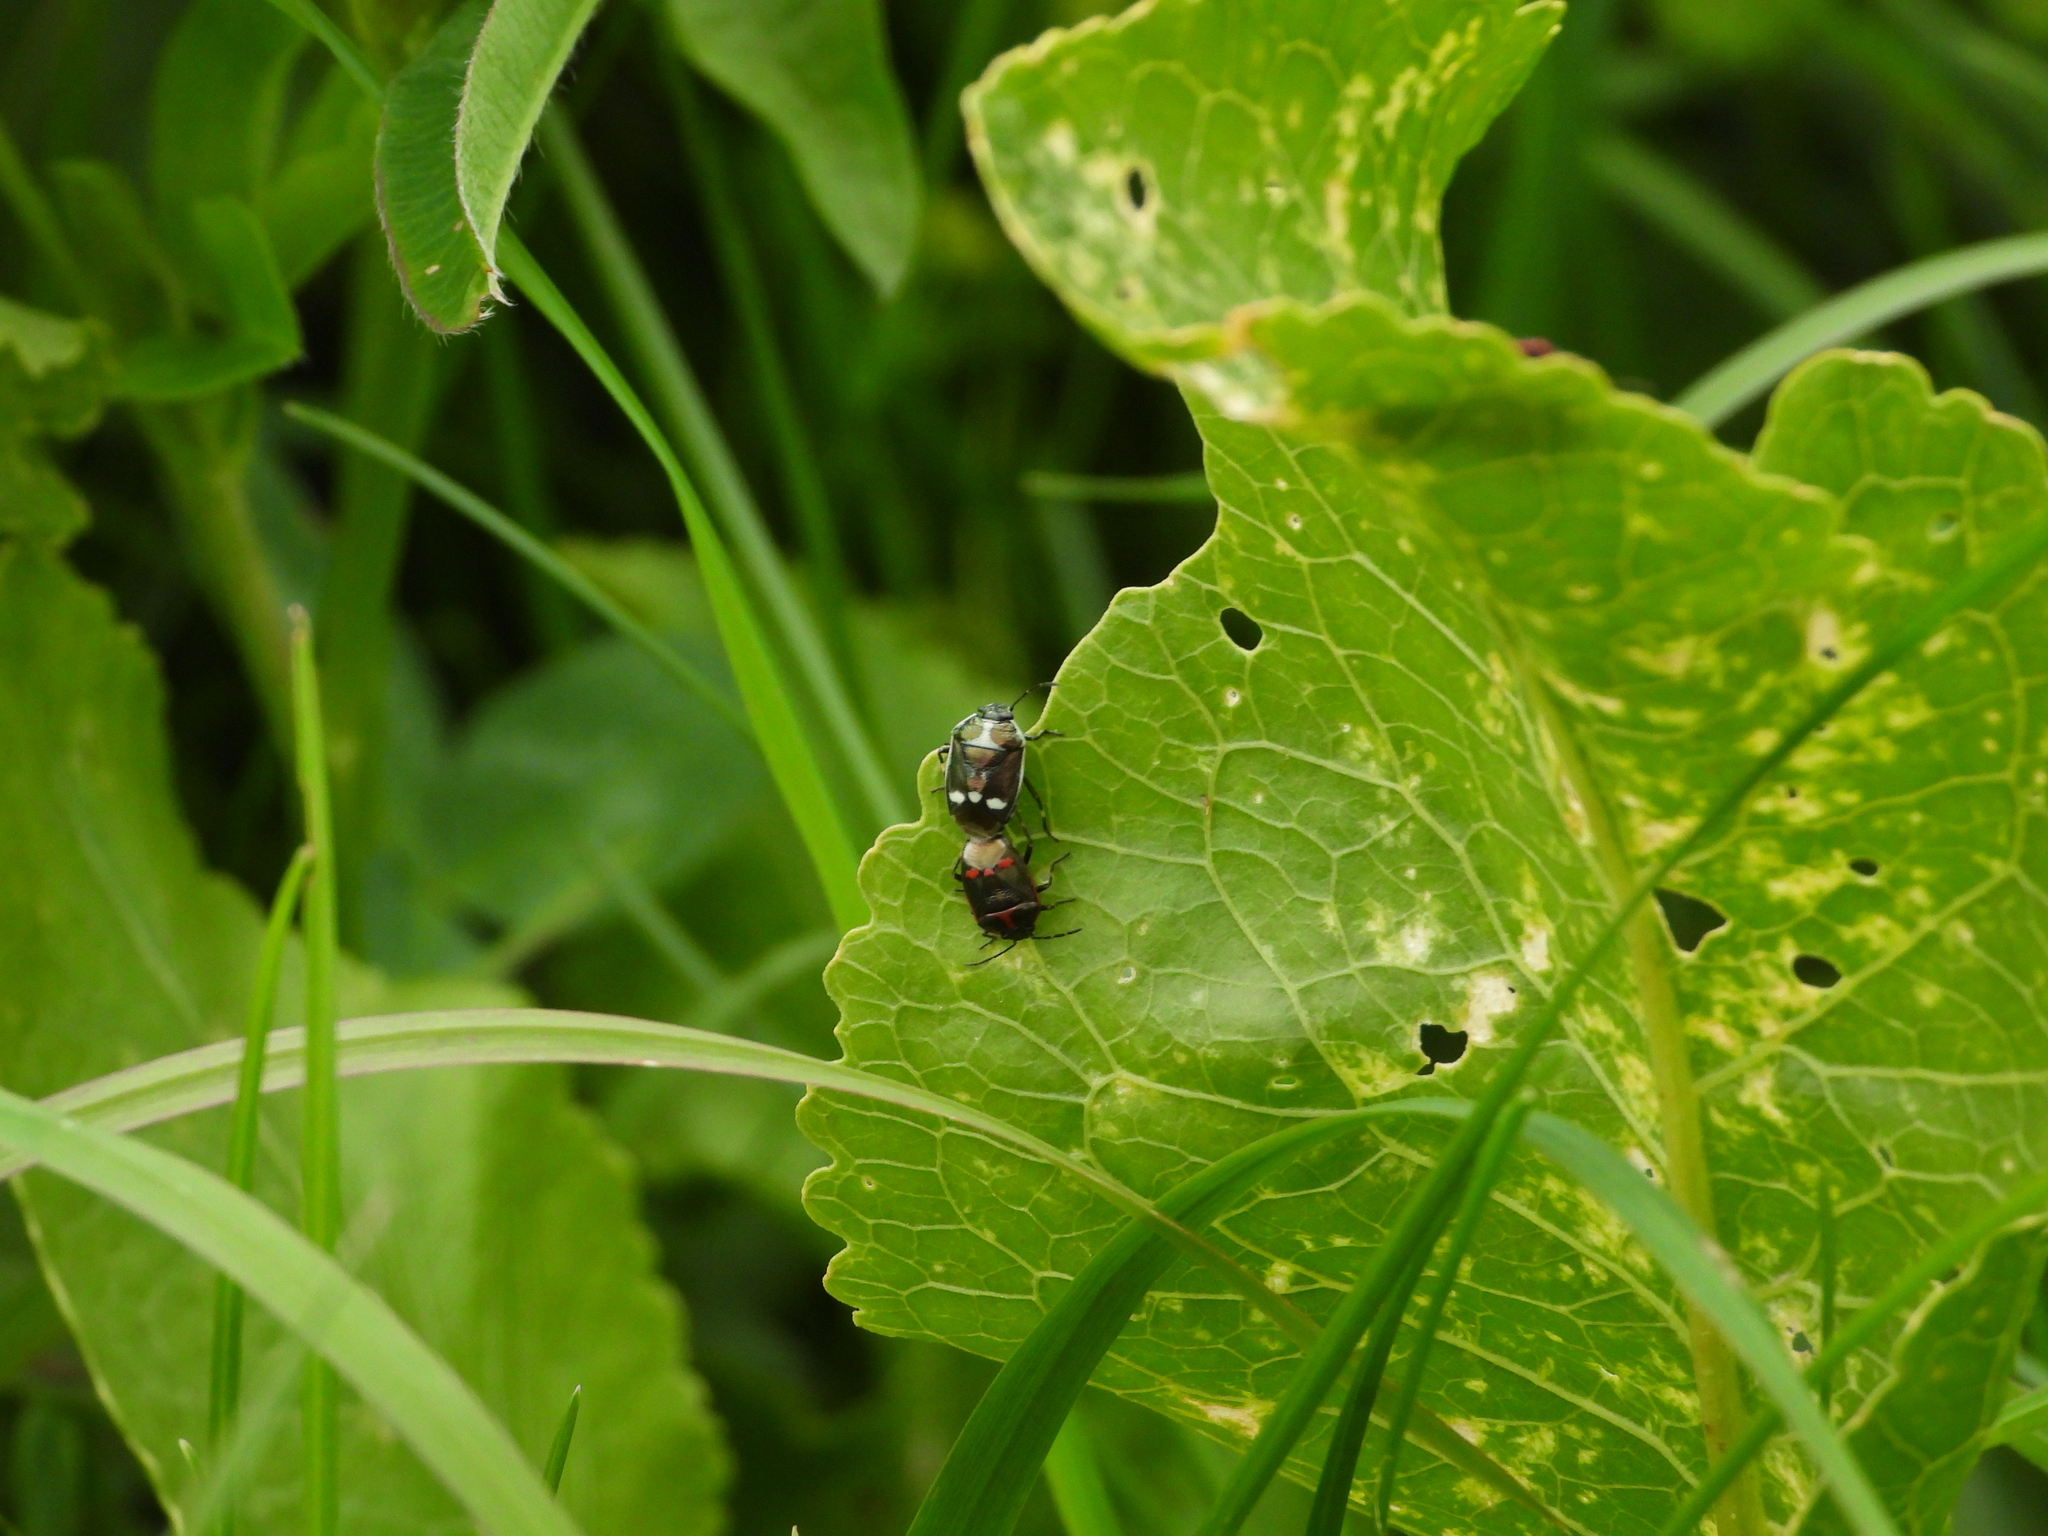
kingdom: Animalia
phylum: Arthropoda
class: Insecta
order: Hemiptera
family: Pentatomidae
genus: Eurydema
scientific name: Eurydema oleracea
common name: Cabbage bug
